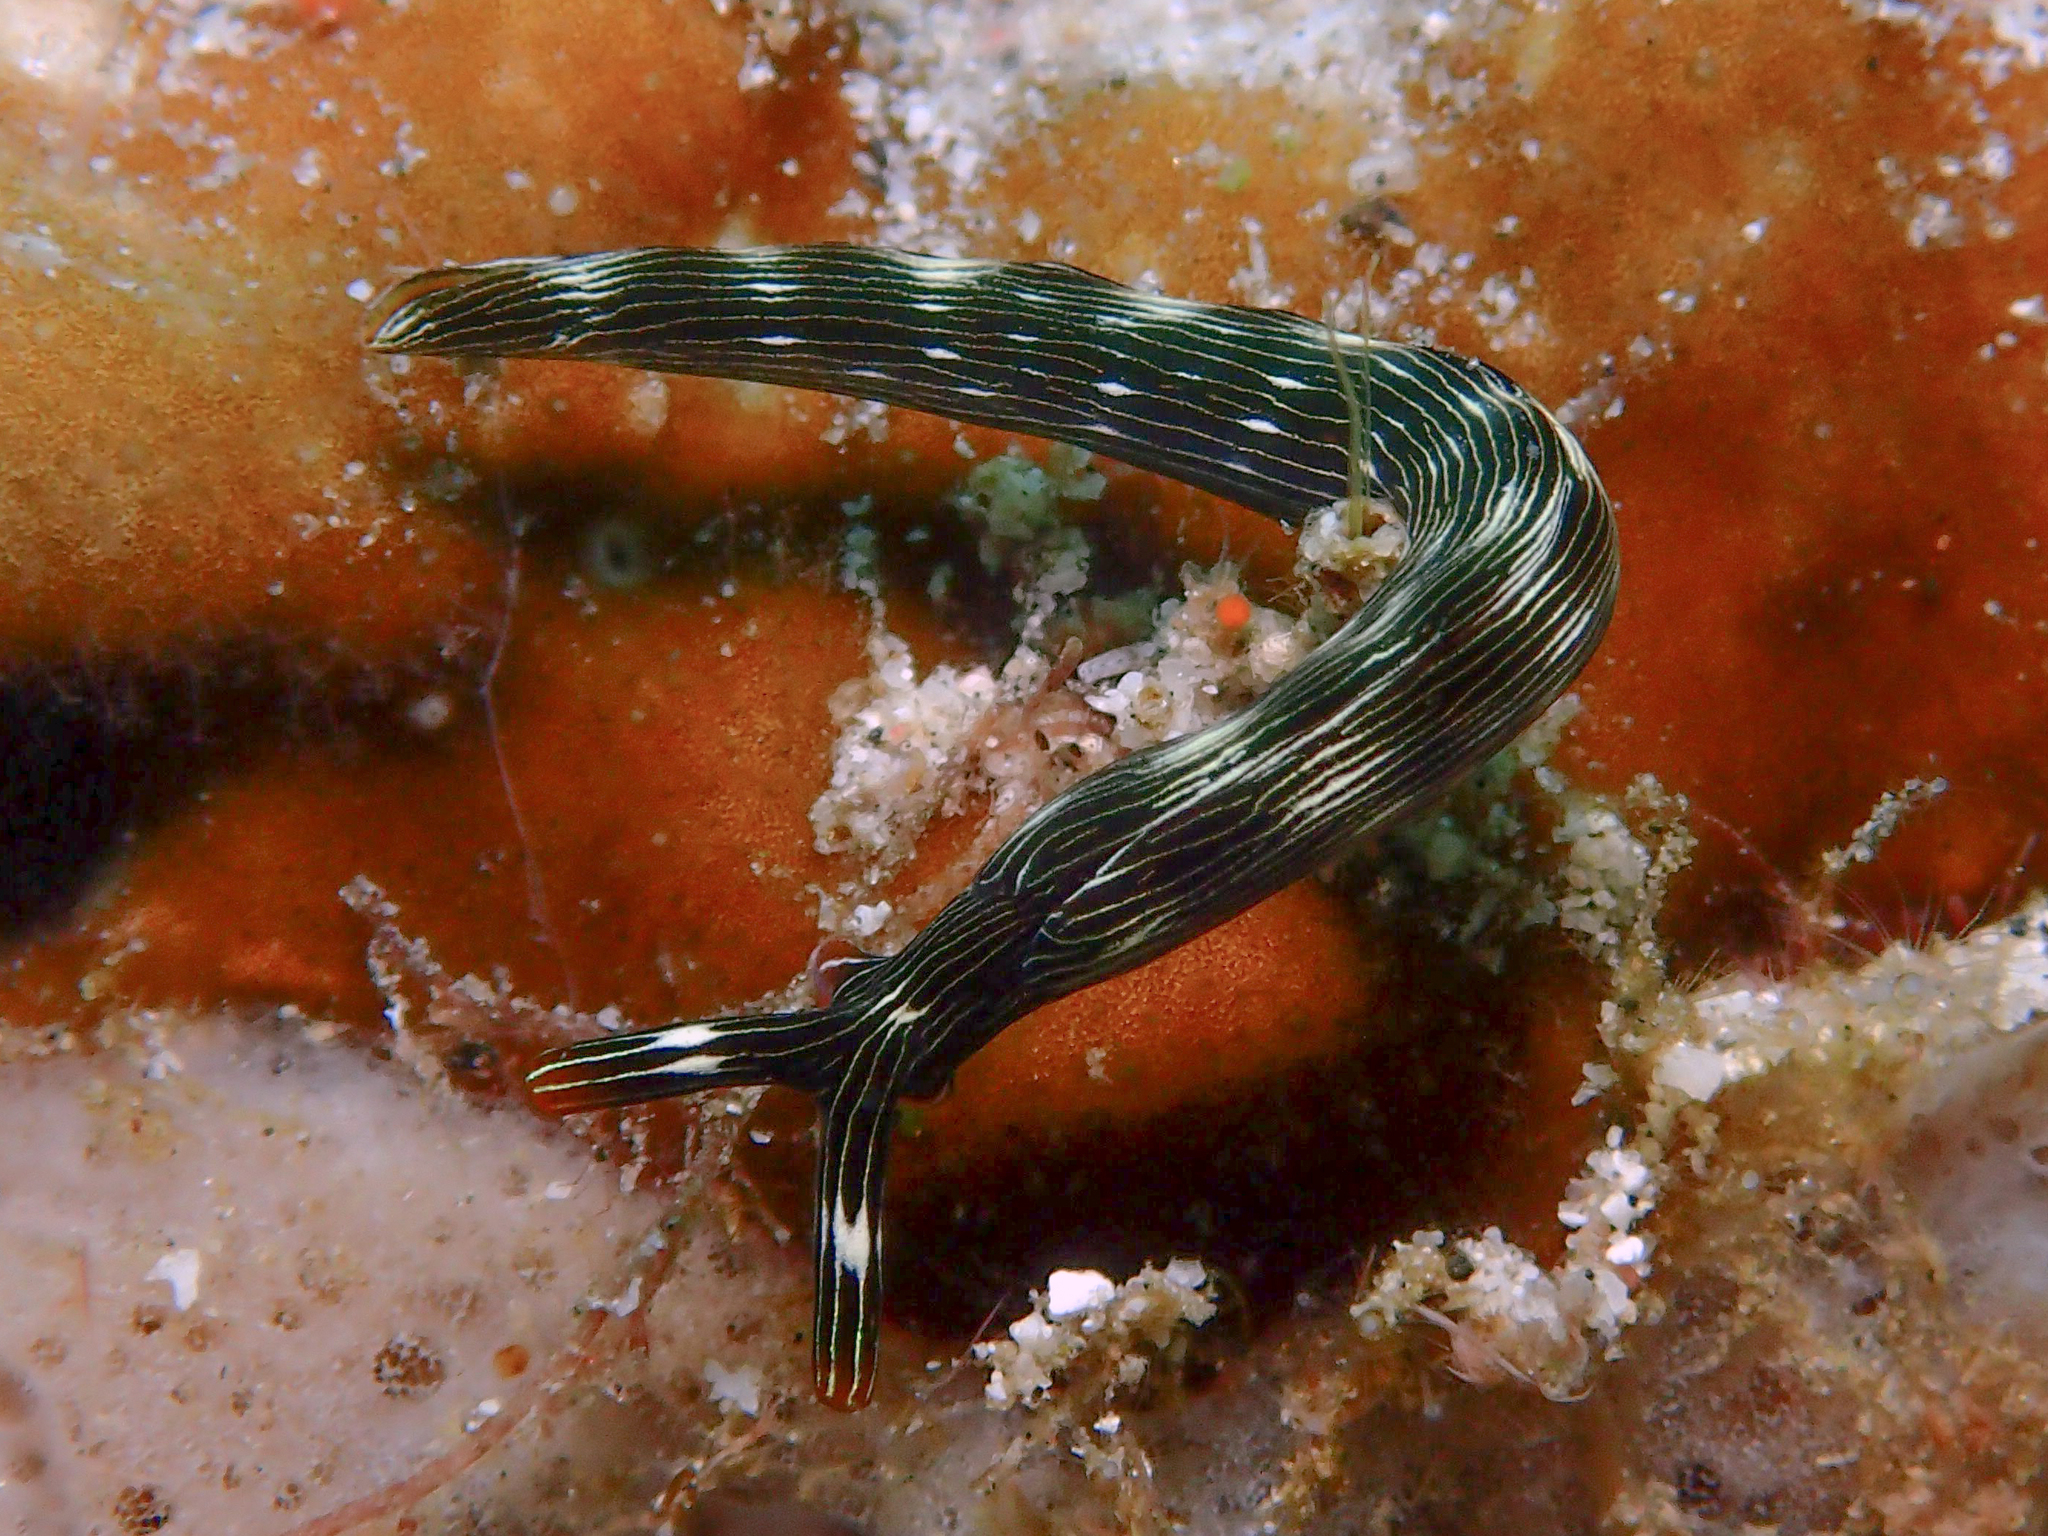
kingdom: Animalia
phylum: Mollusca
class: Gastropoda
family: Plakobranchidae
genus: Thuridilla
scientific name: Thuridilla gracilis
